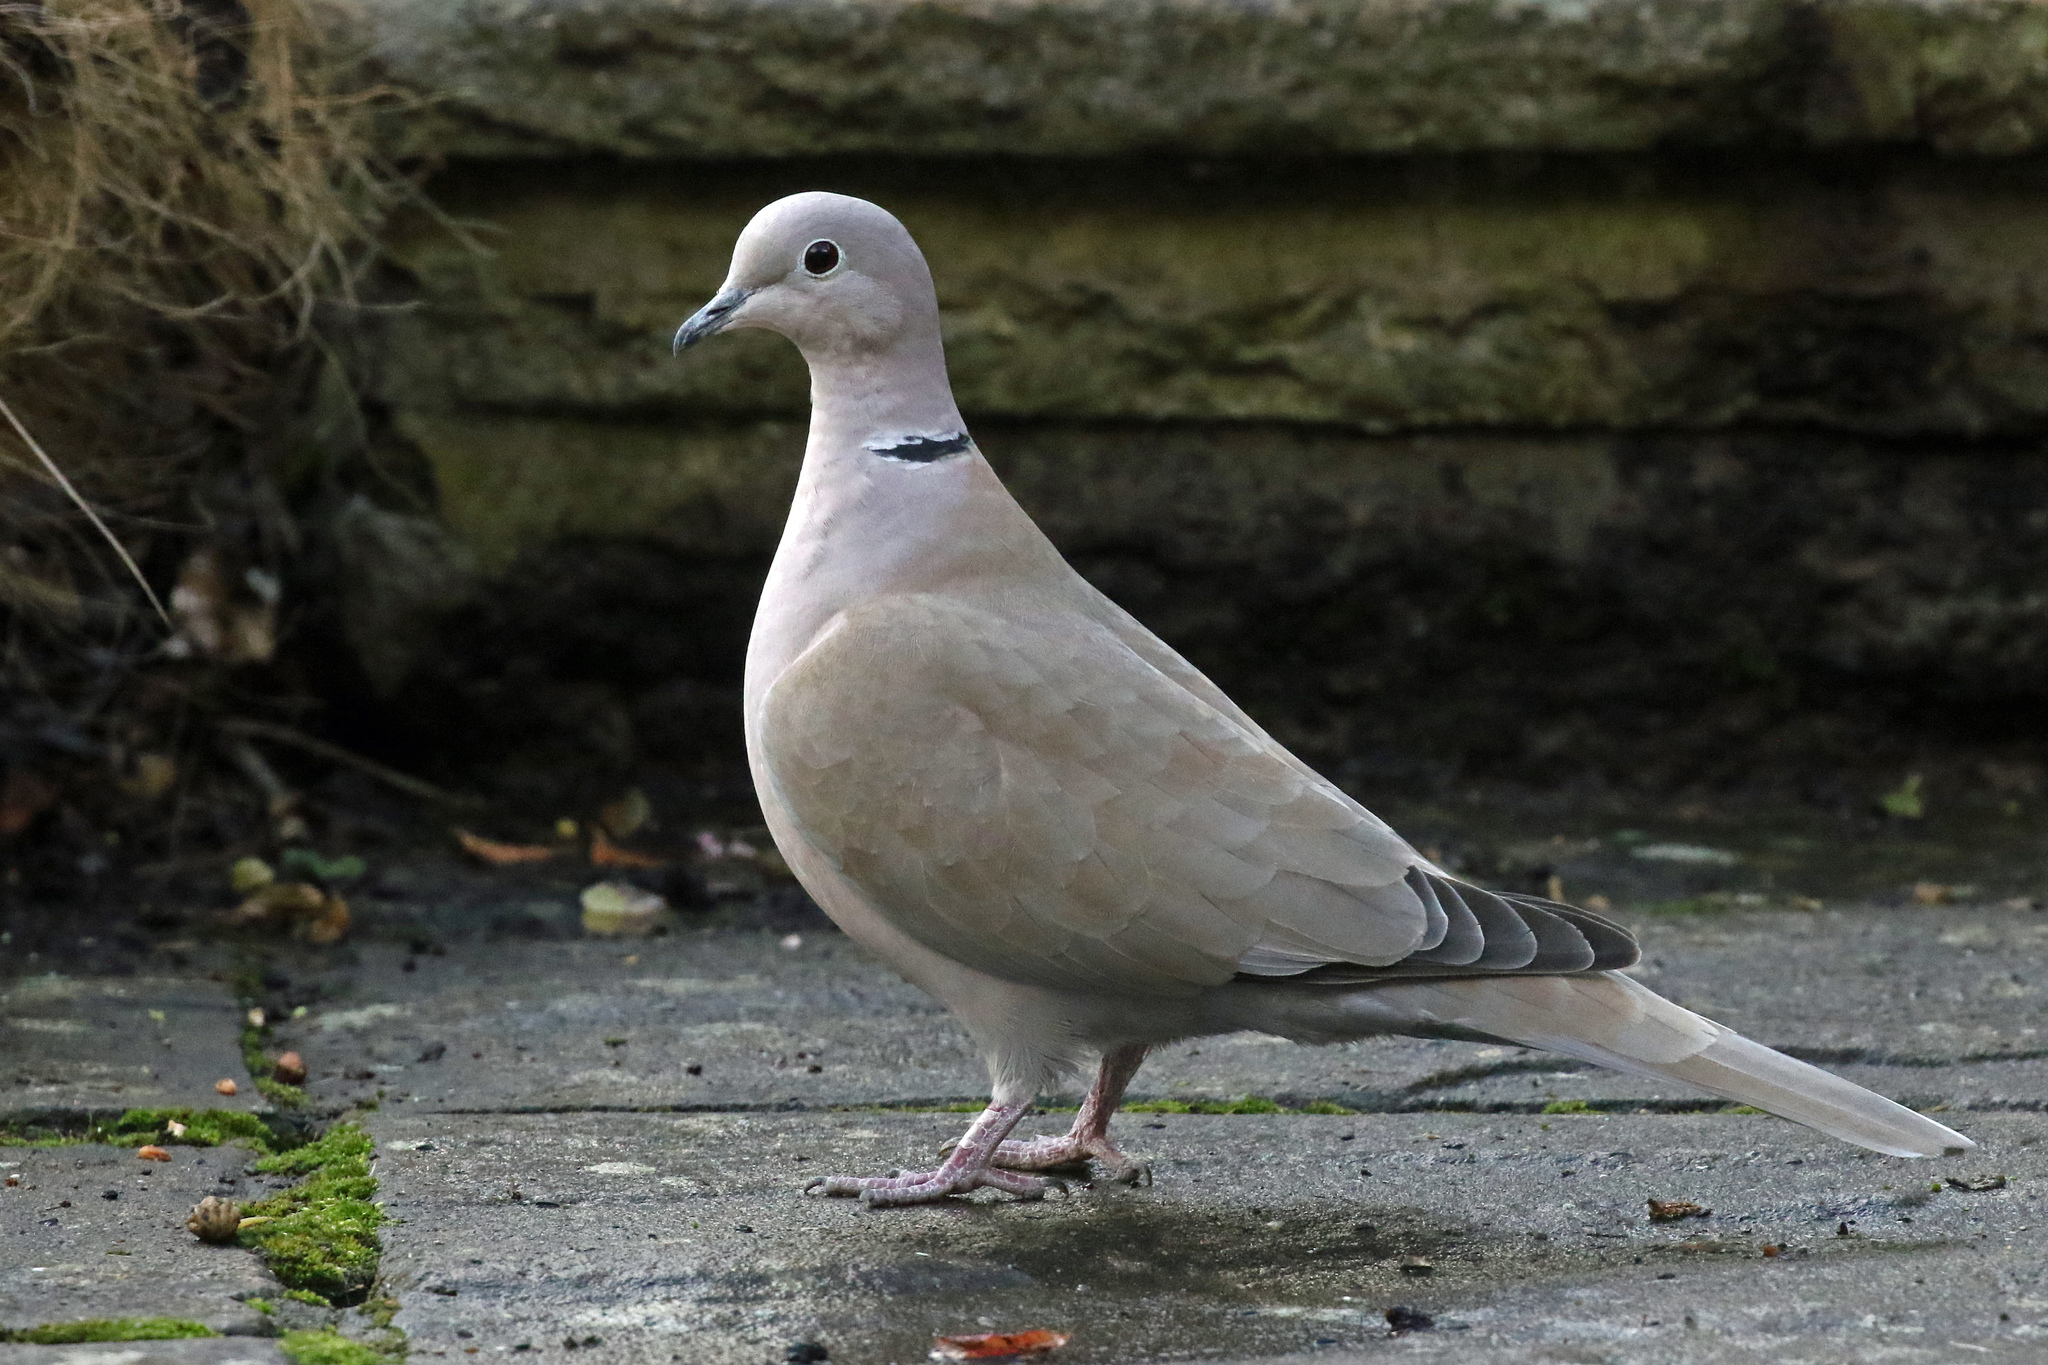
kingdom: Animalia
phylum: Chordata
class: Aves
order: Columbiformes
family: Columbidae
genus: Streptopelia
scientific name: Streptopelia decaocto
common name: Eurasian collared dove
